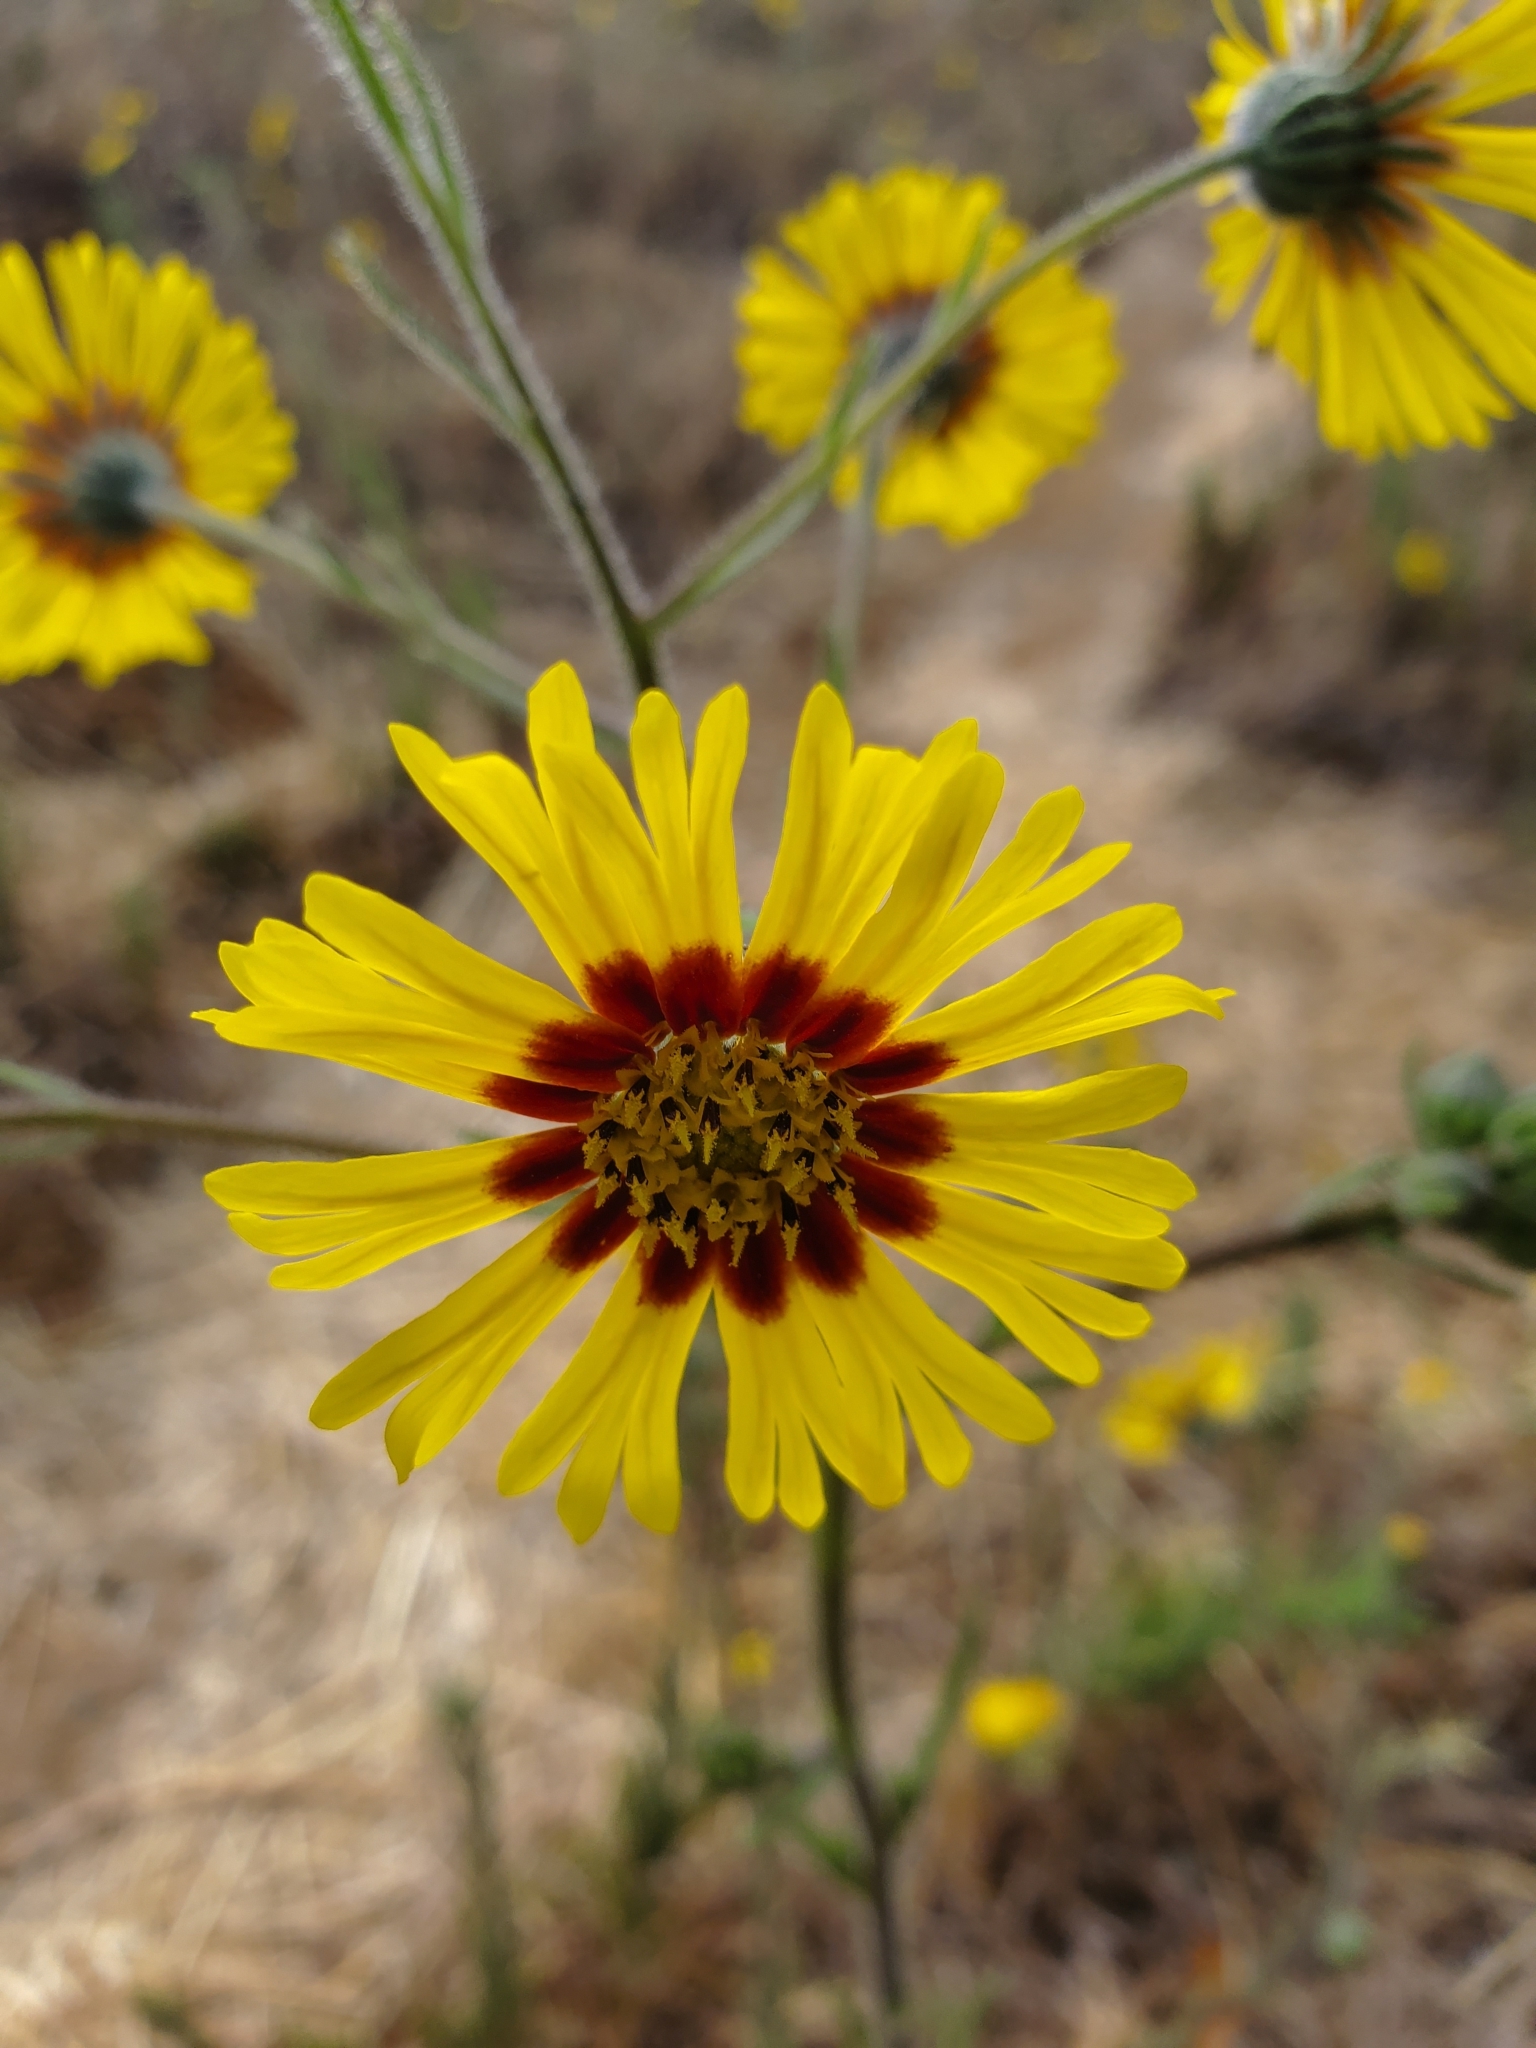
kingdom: Plantae
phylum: Tracheophyta
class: Magnoliopsida
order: Asterales
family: Asteraceae
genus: Madia
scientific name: Madia elegans
